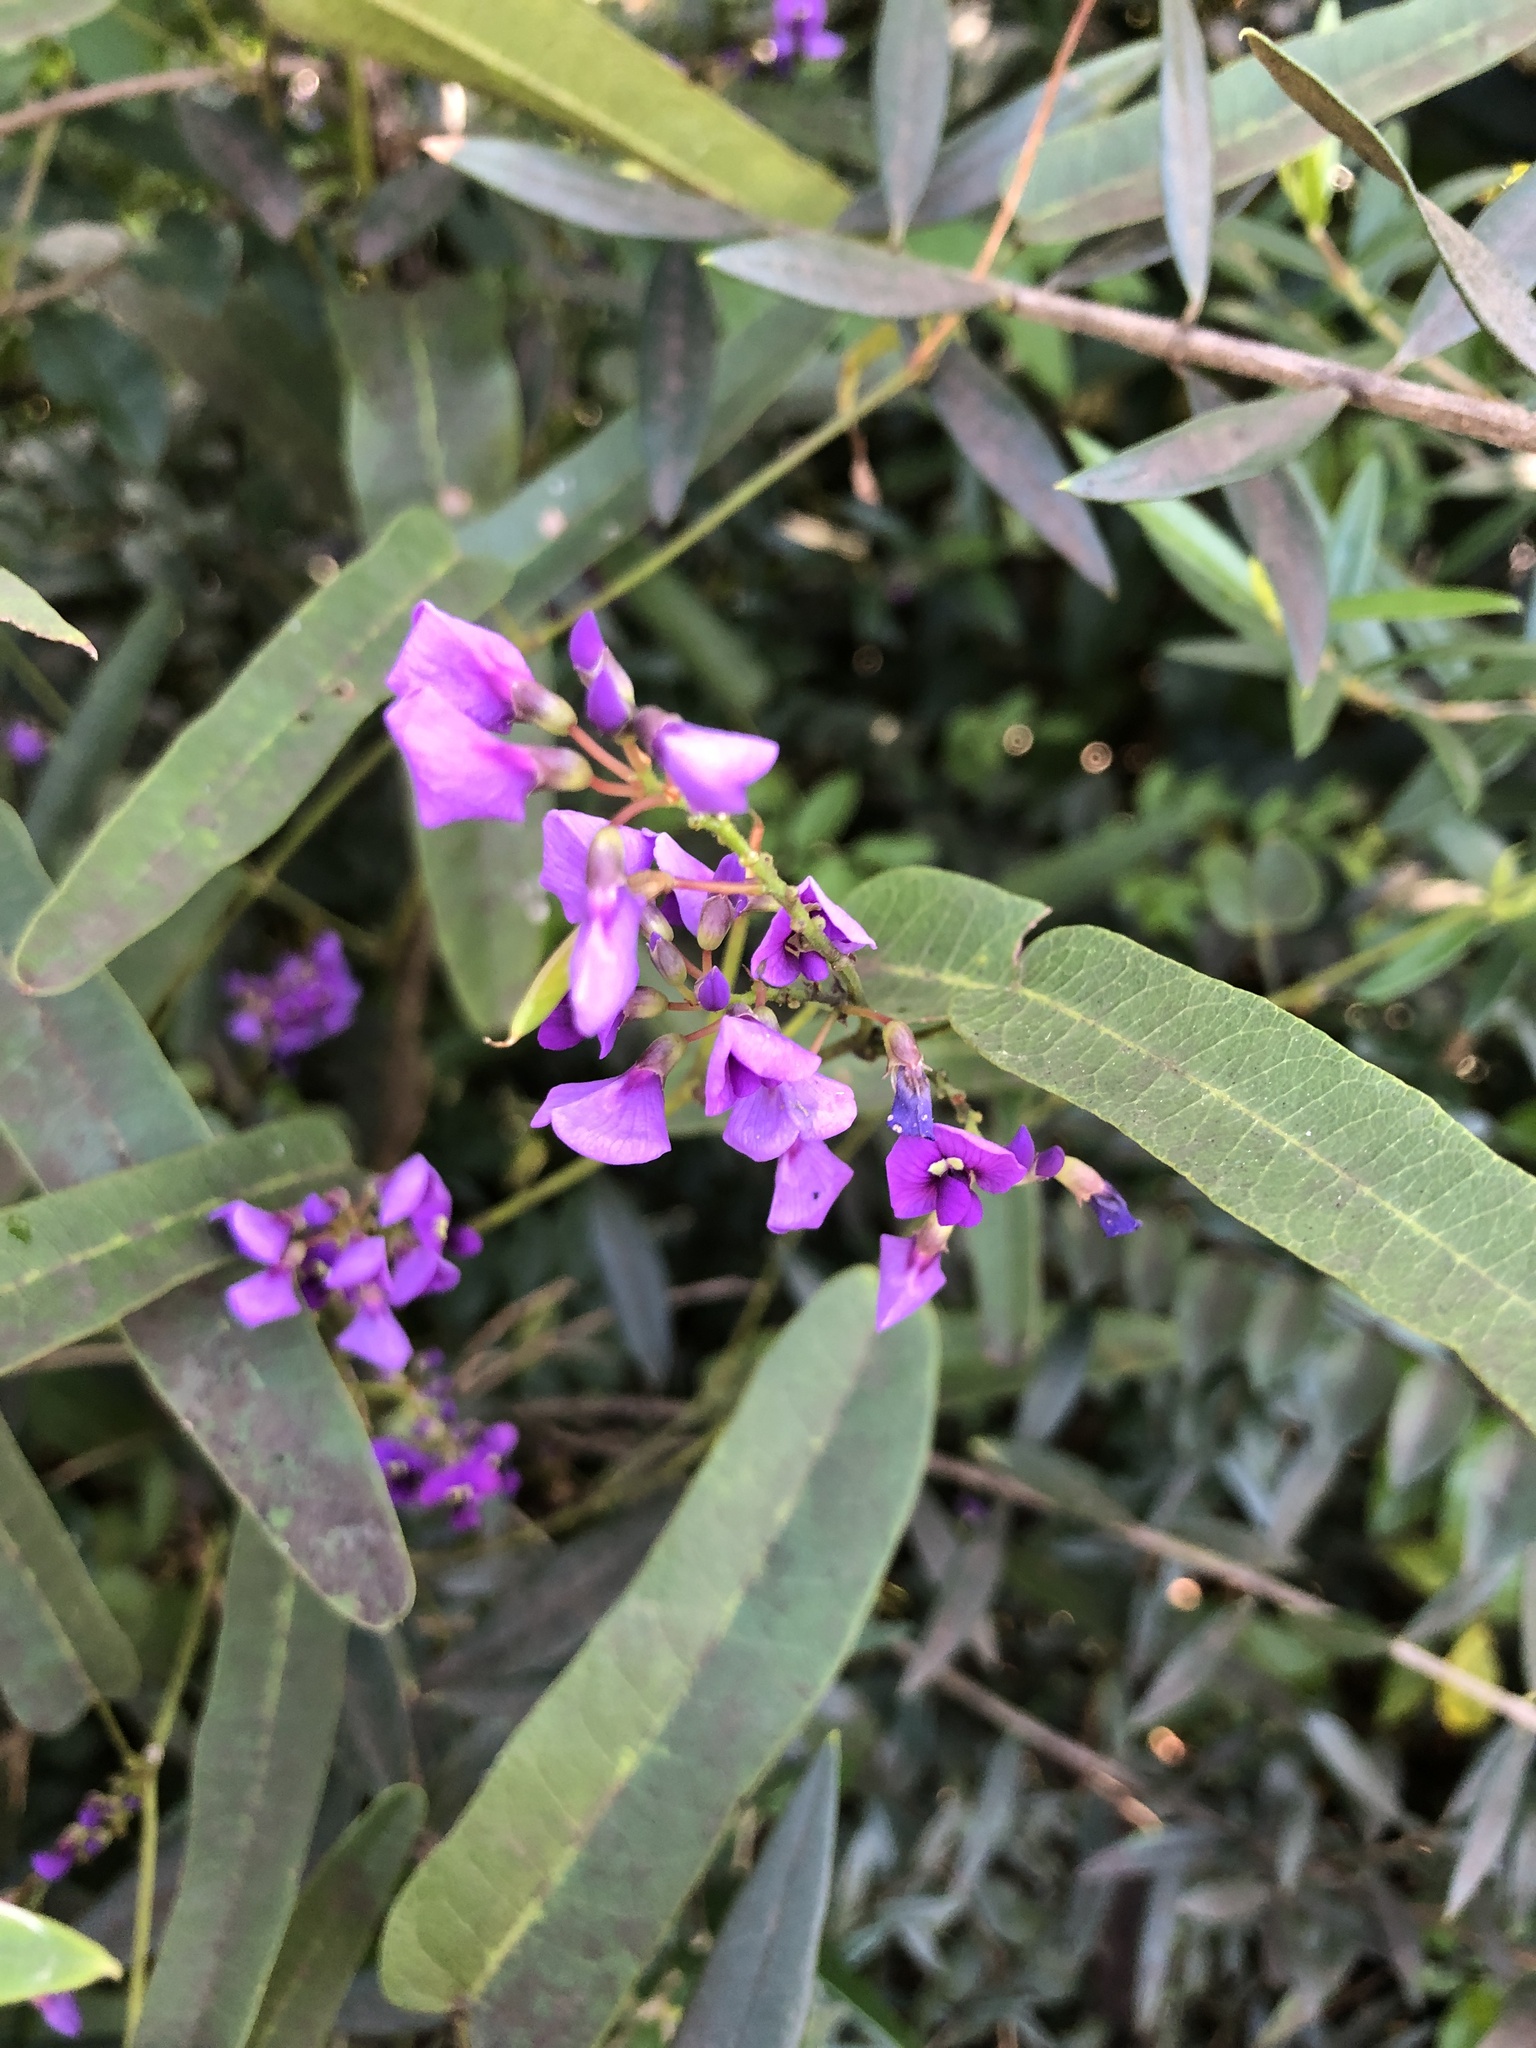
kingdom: Plantae
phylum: Tracheophyta
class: Magnoliopsida
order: Fabales
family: Fabaceae
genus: Hardenbergia
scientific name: Hardenbergia violacea
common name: Coral-pea
